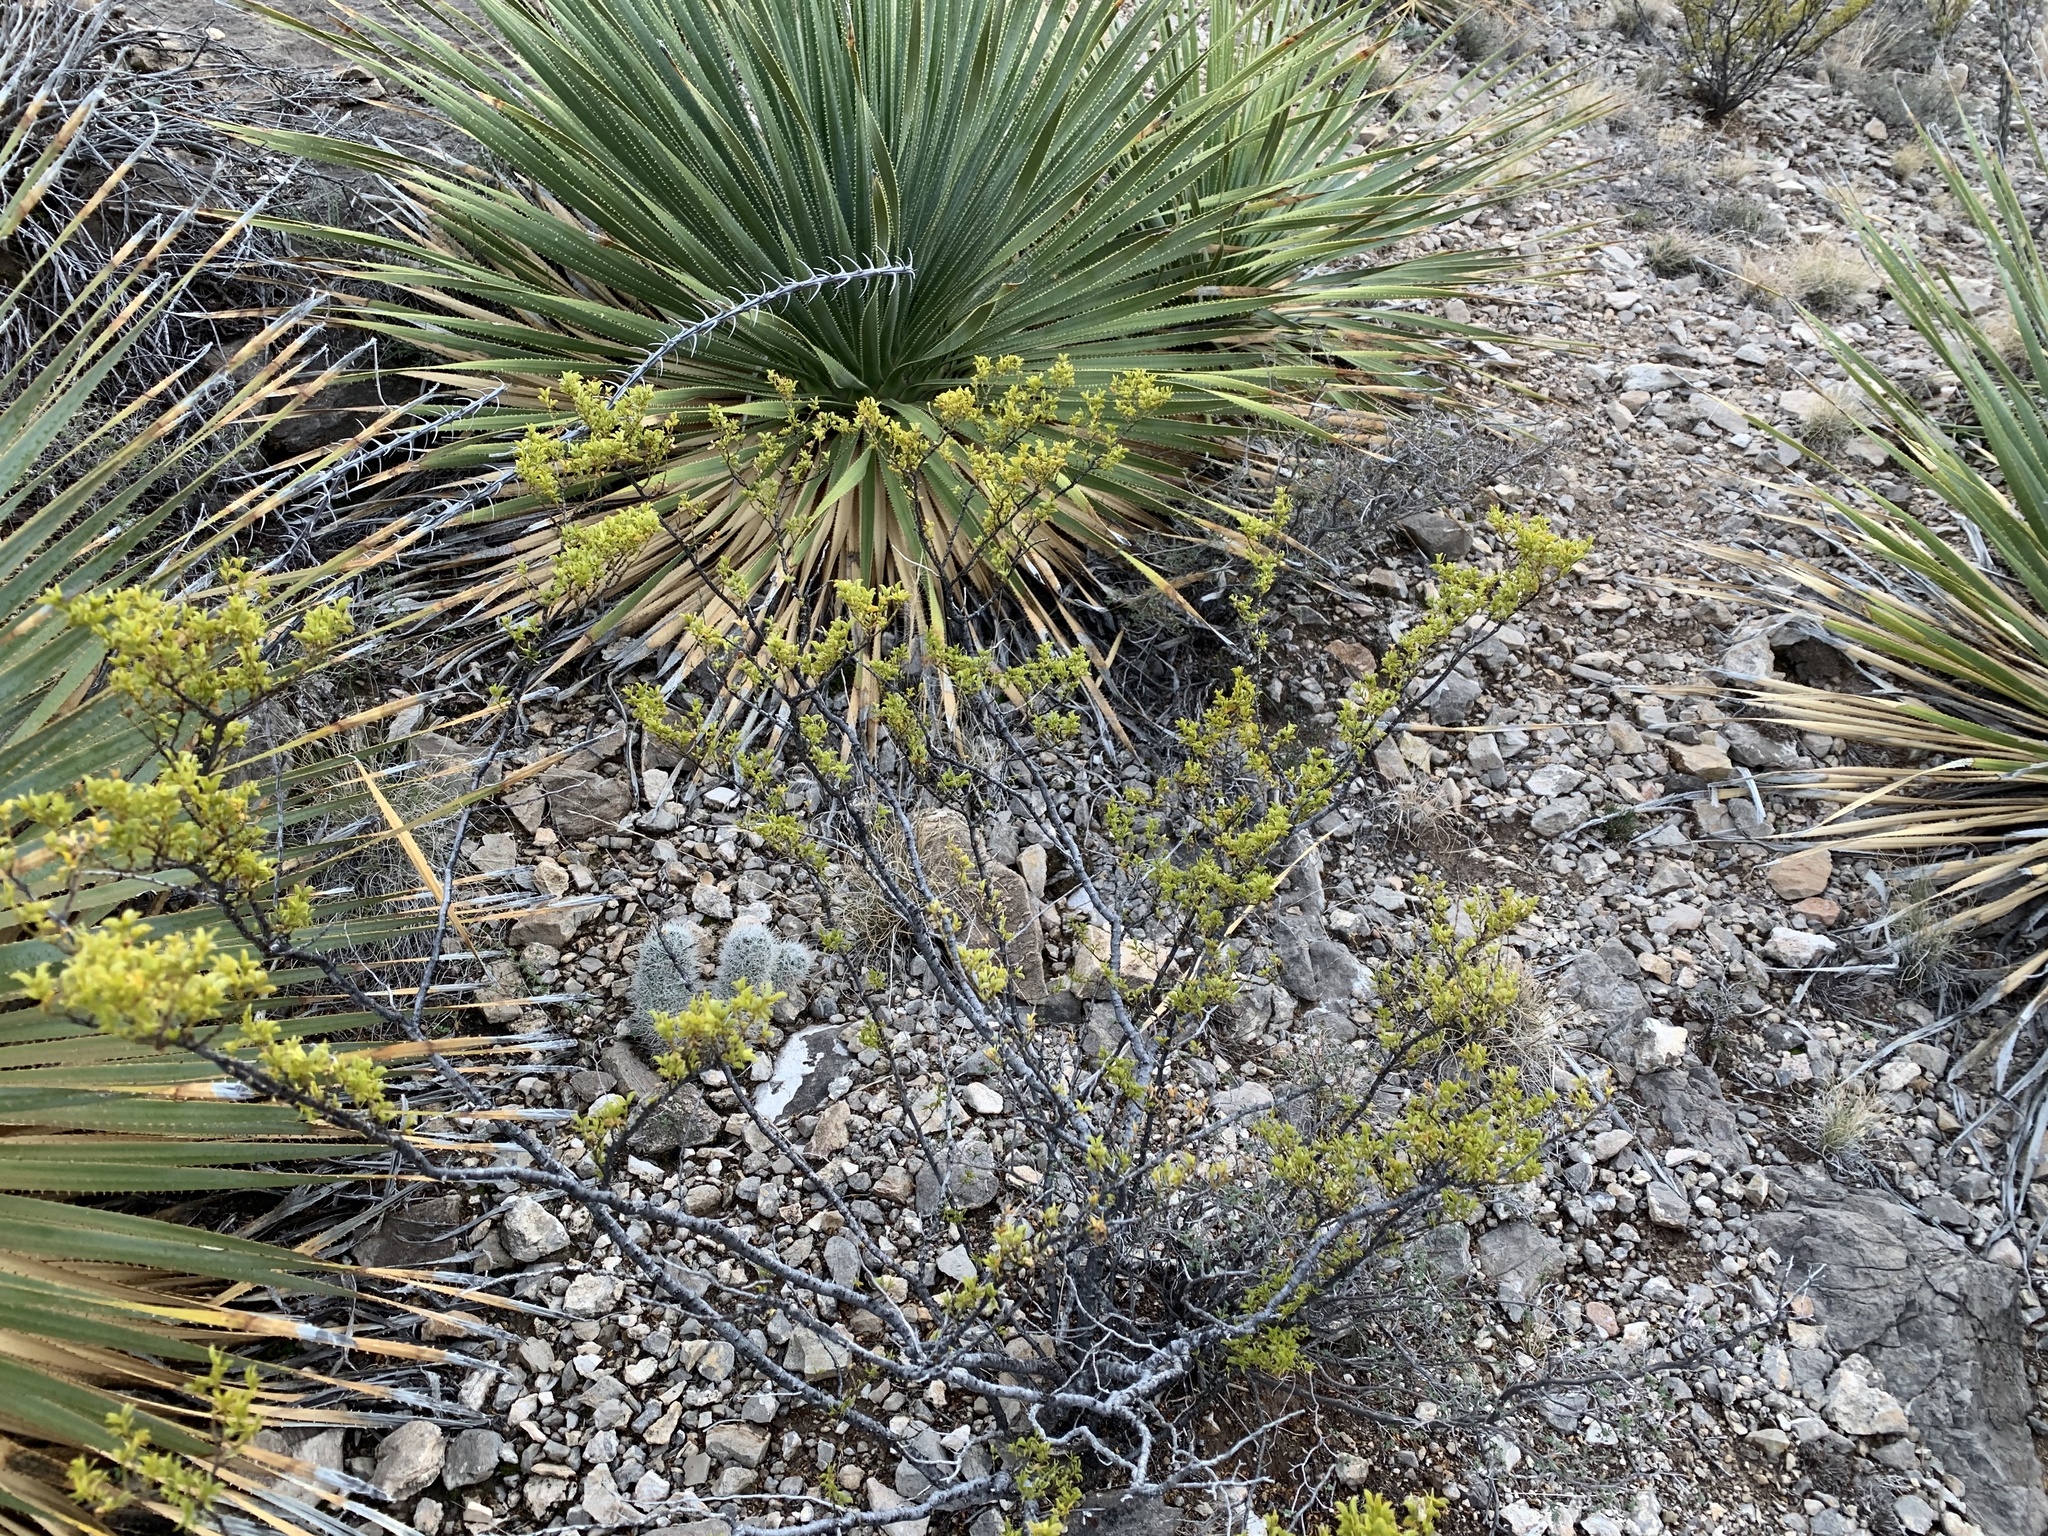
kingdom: Plantae
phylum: Tracheophyta
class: Magnoliopsida
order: Zygophyllales
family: Zygophyllaceae
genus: Larrea
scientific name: Larrea tridentata
